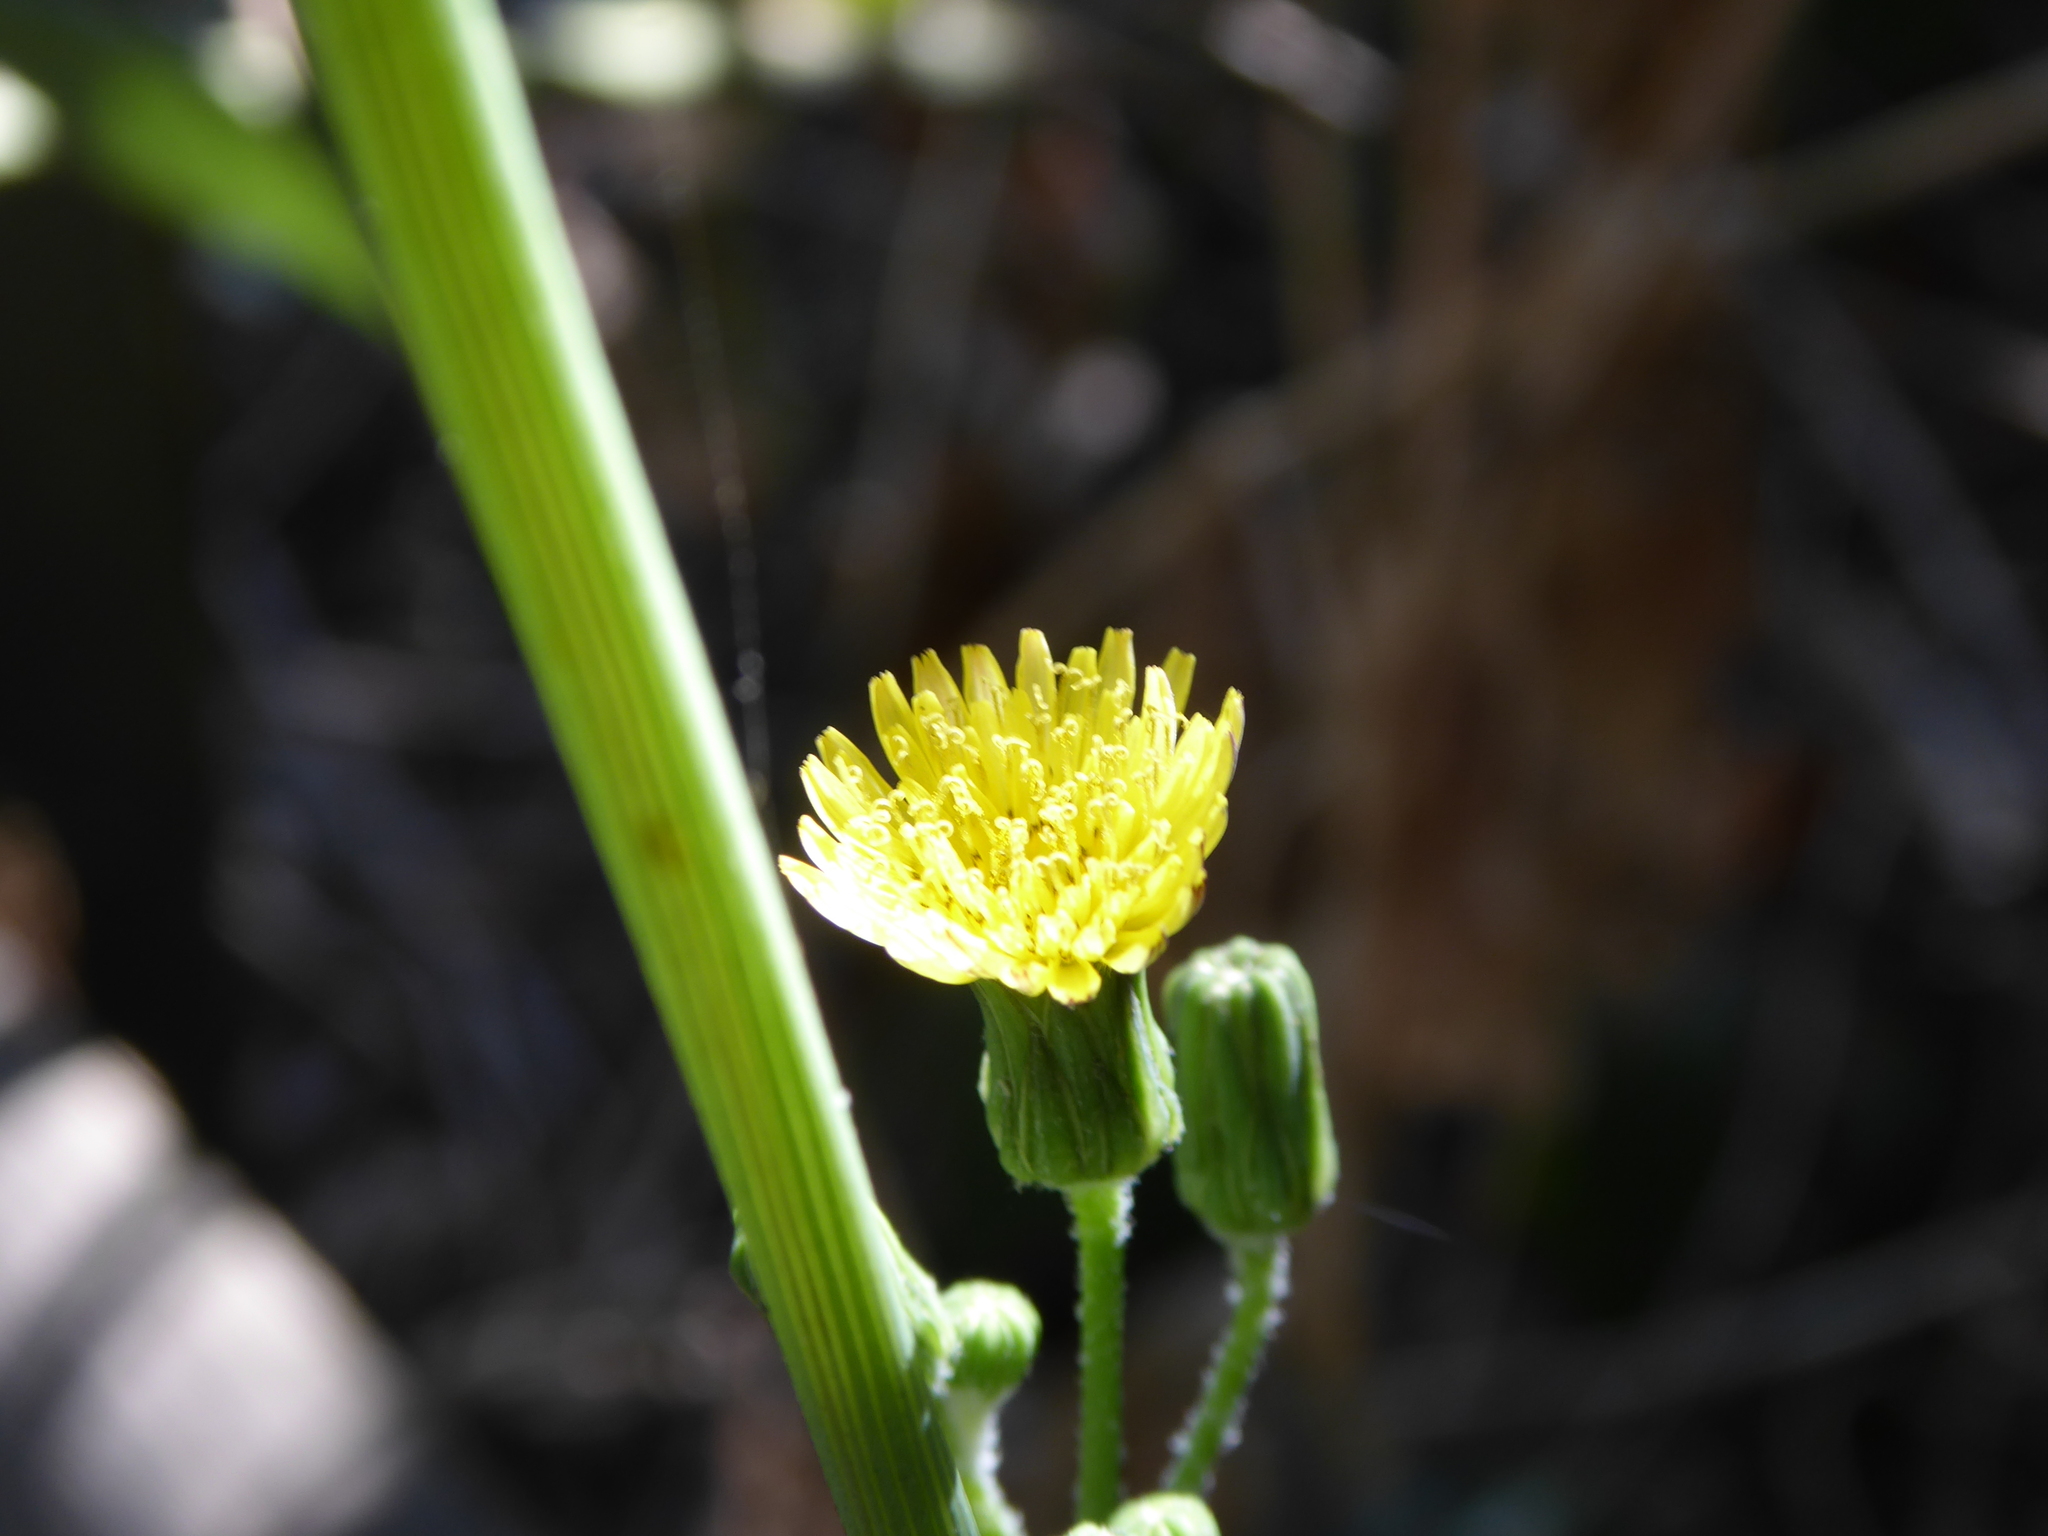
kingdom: Plantae
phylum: Tracheophyta
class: Magnoliopsida
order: Asterales
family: Asteraceae
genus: Sonchus
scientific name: Sonchus oleraceus
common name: Common sowthistle
